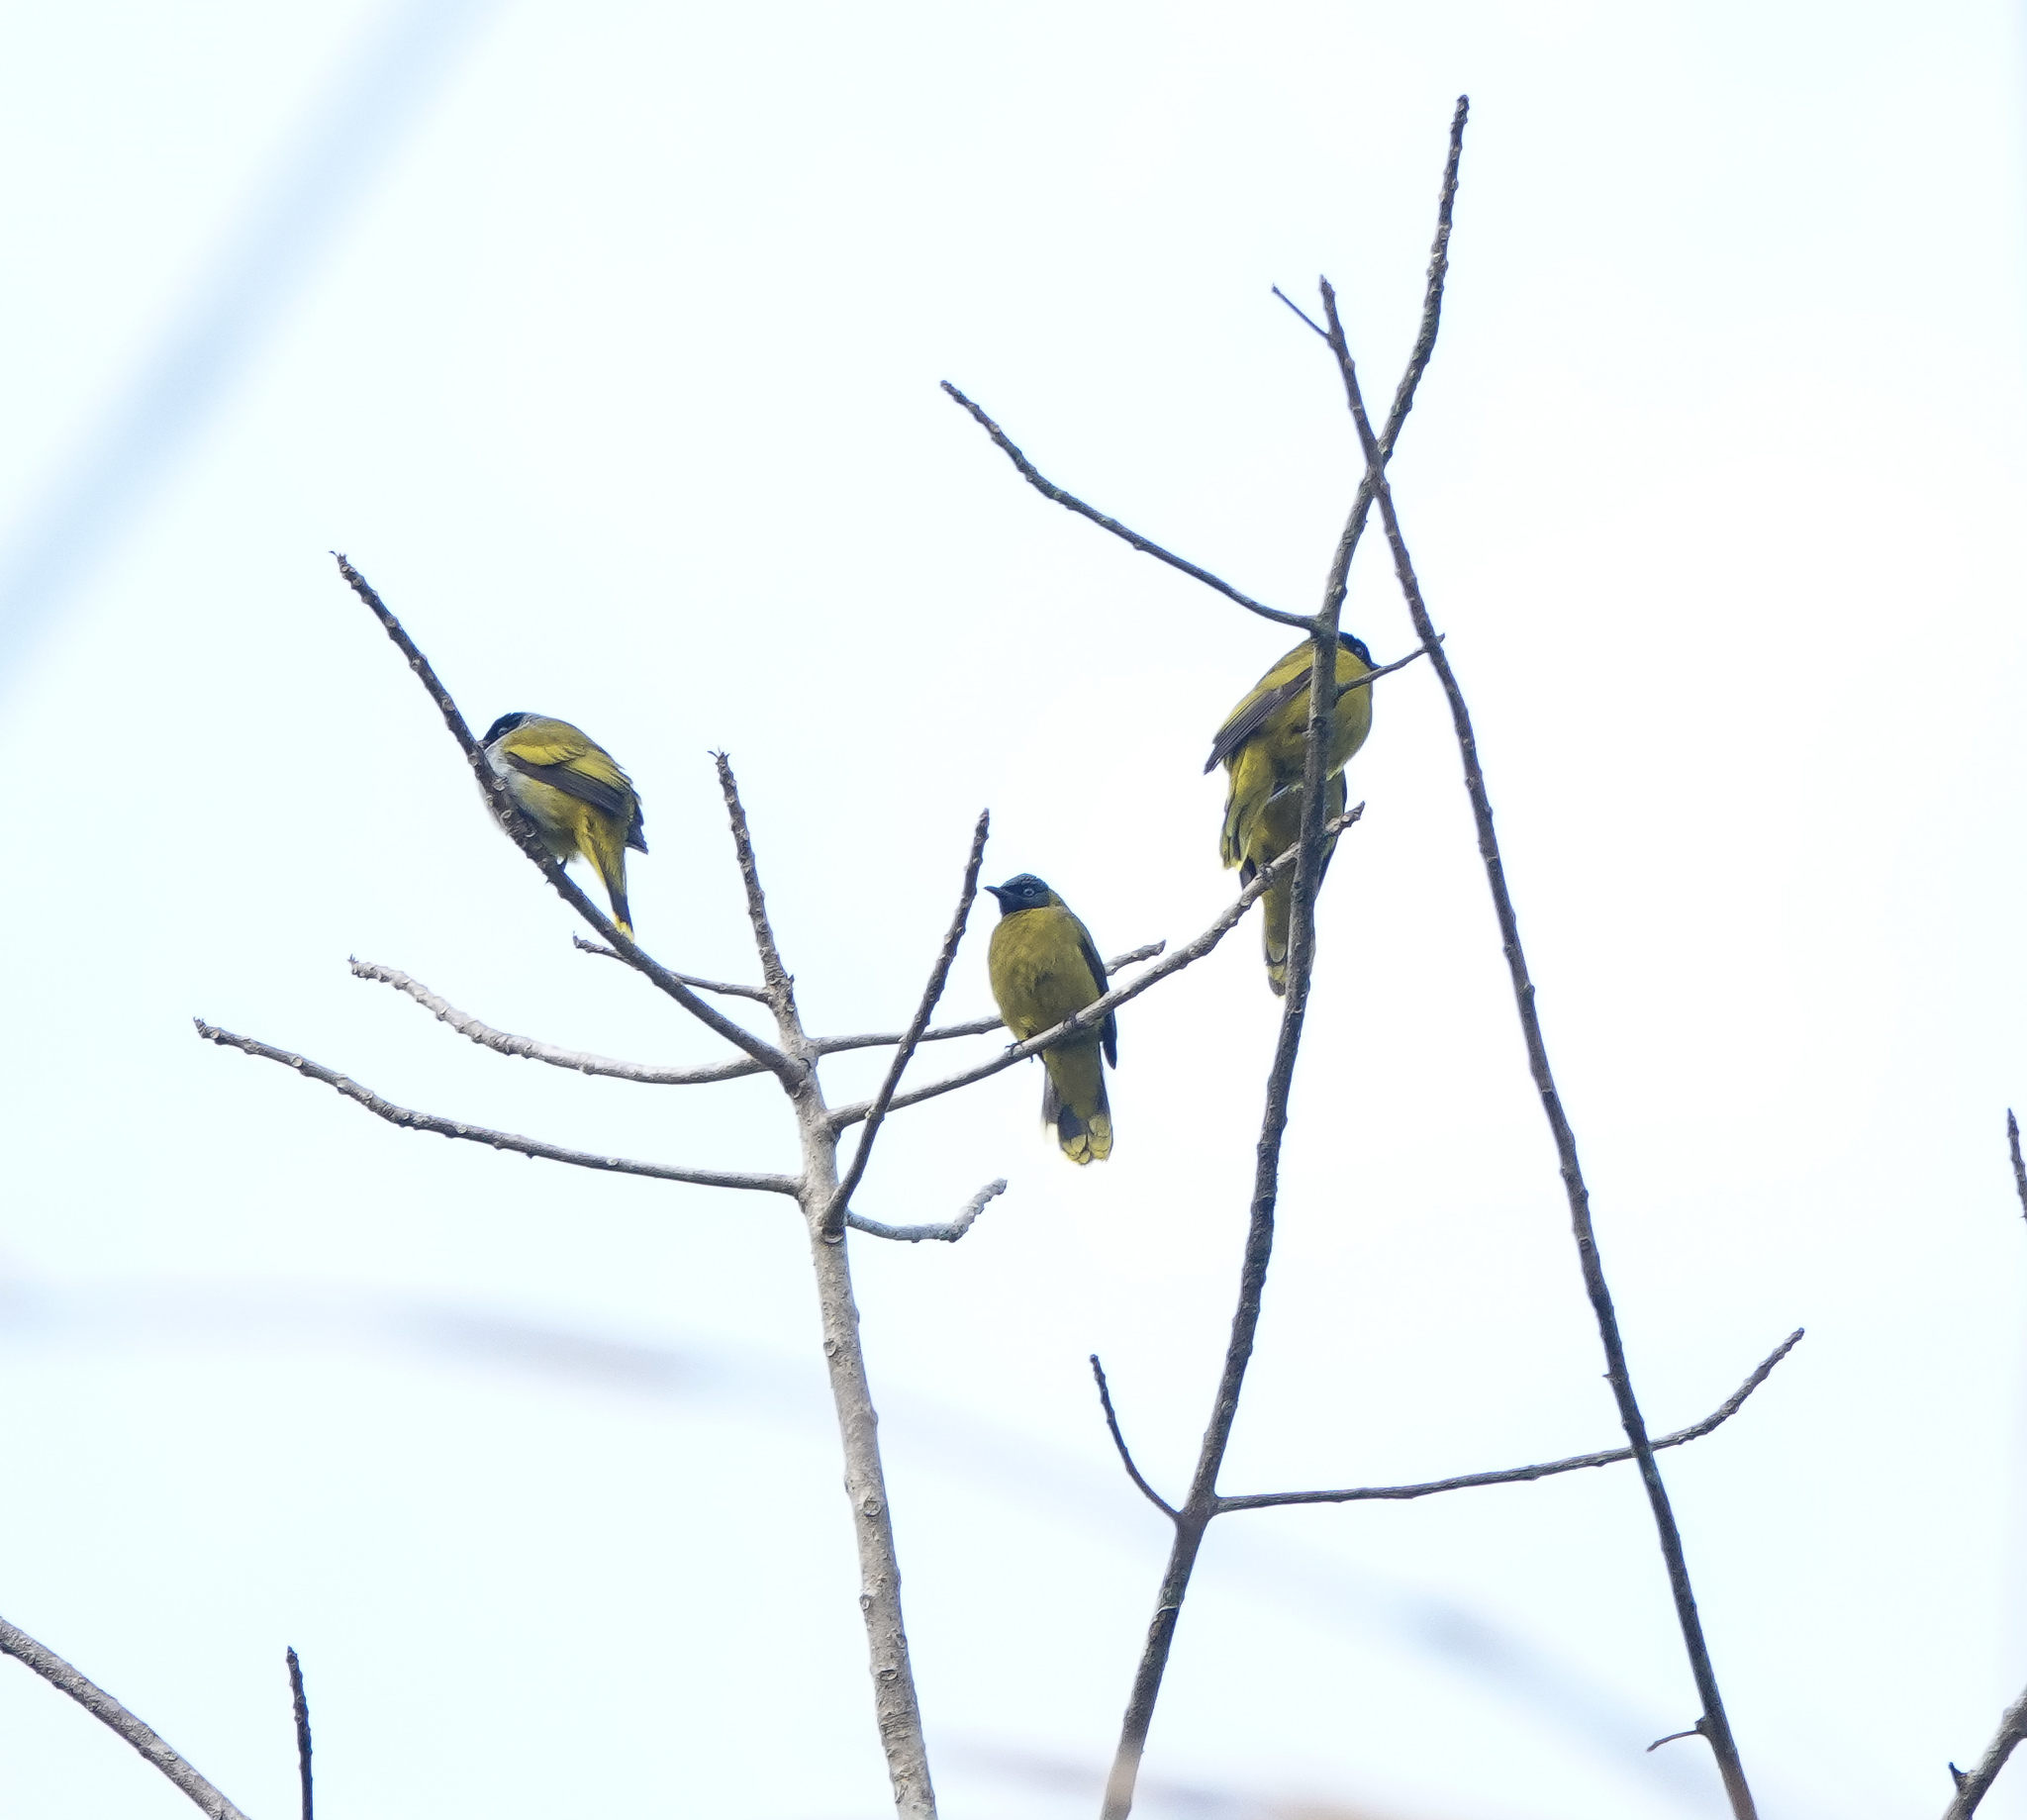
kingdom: Animalia
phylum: Chordata
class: Aves
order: Passeriformes
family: Pycnonotidae
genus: Microtarsus
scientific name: Microtarsus
